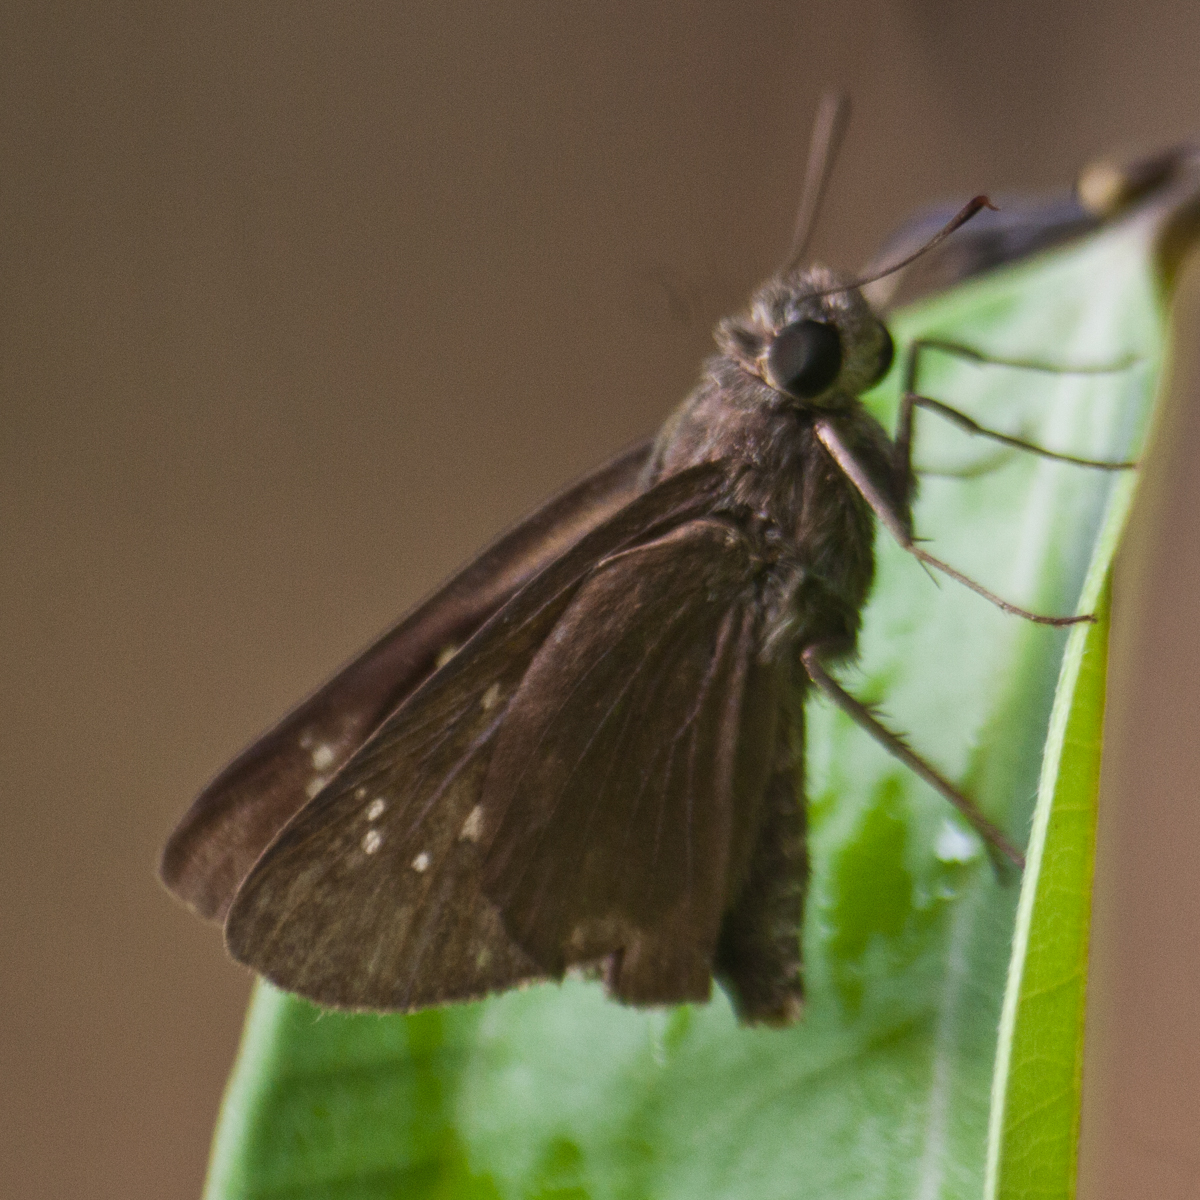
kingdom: Animalia
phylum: Arthropoda
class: Insecta
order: Lepidoptera
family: Hesperiidae
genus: Baoris
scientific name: Baoris farri
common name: Paintbrush swift
